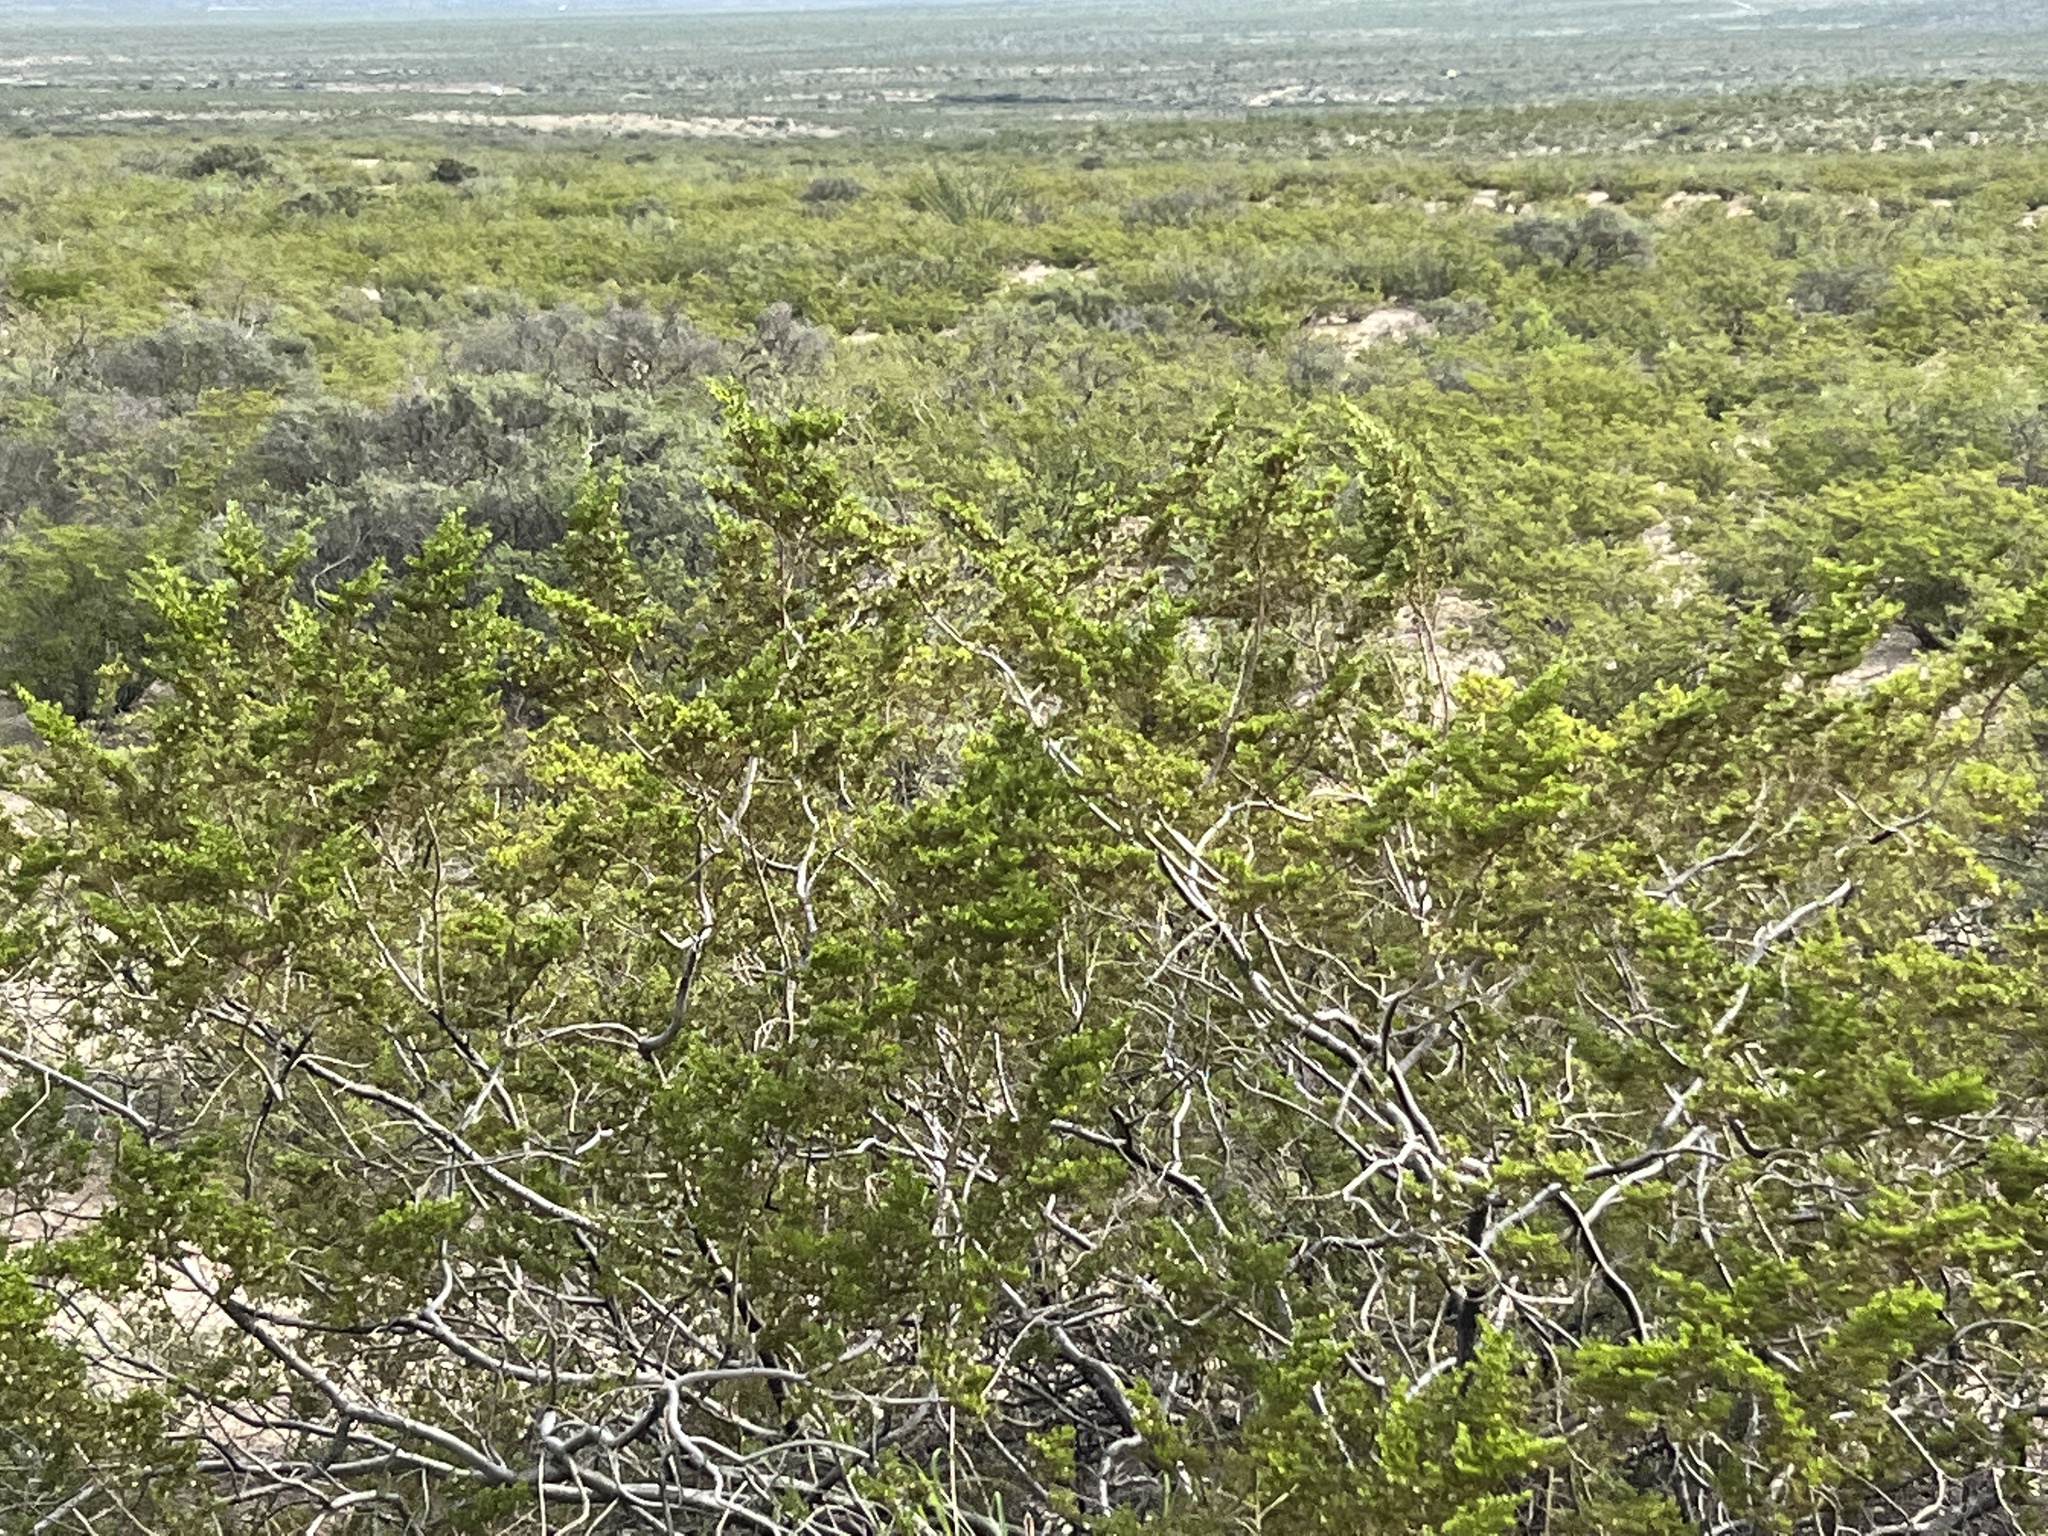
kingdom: Plantae
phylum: Tracheophyta
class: Magnoliopsida
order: Zygophyllales
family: Zygophyllaceae
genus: Larrea
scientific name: Larrea tridentata
